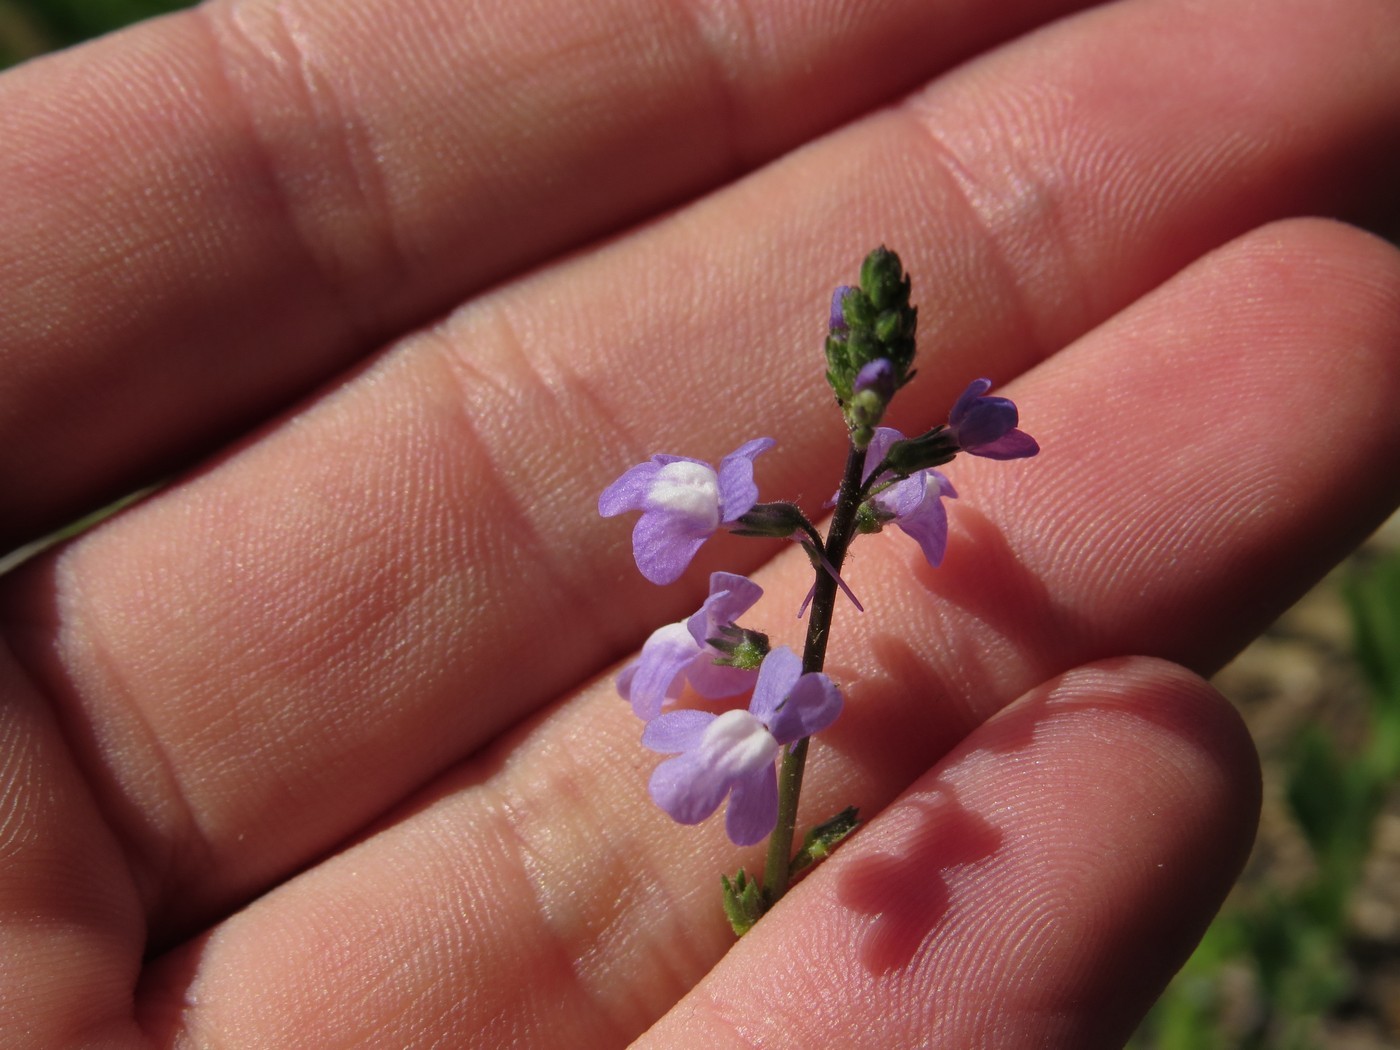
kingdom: Plantae
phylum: Tracheophyta
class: Magnoliopsida
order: Lamiales
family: Plantaginaceae
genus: Nuttallanthus
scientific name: Nuttallanthus canadensis
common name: Blue toadflax
